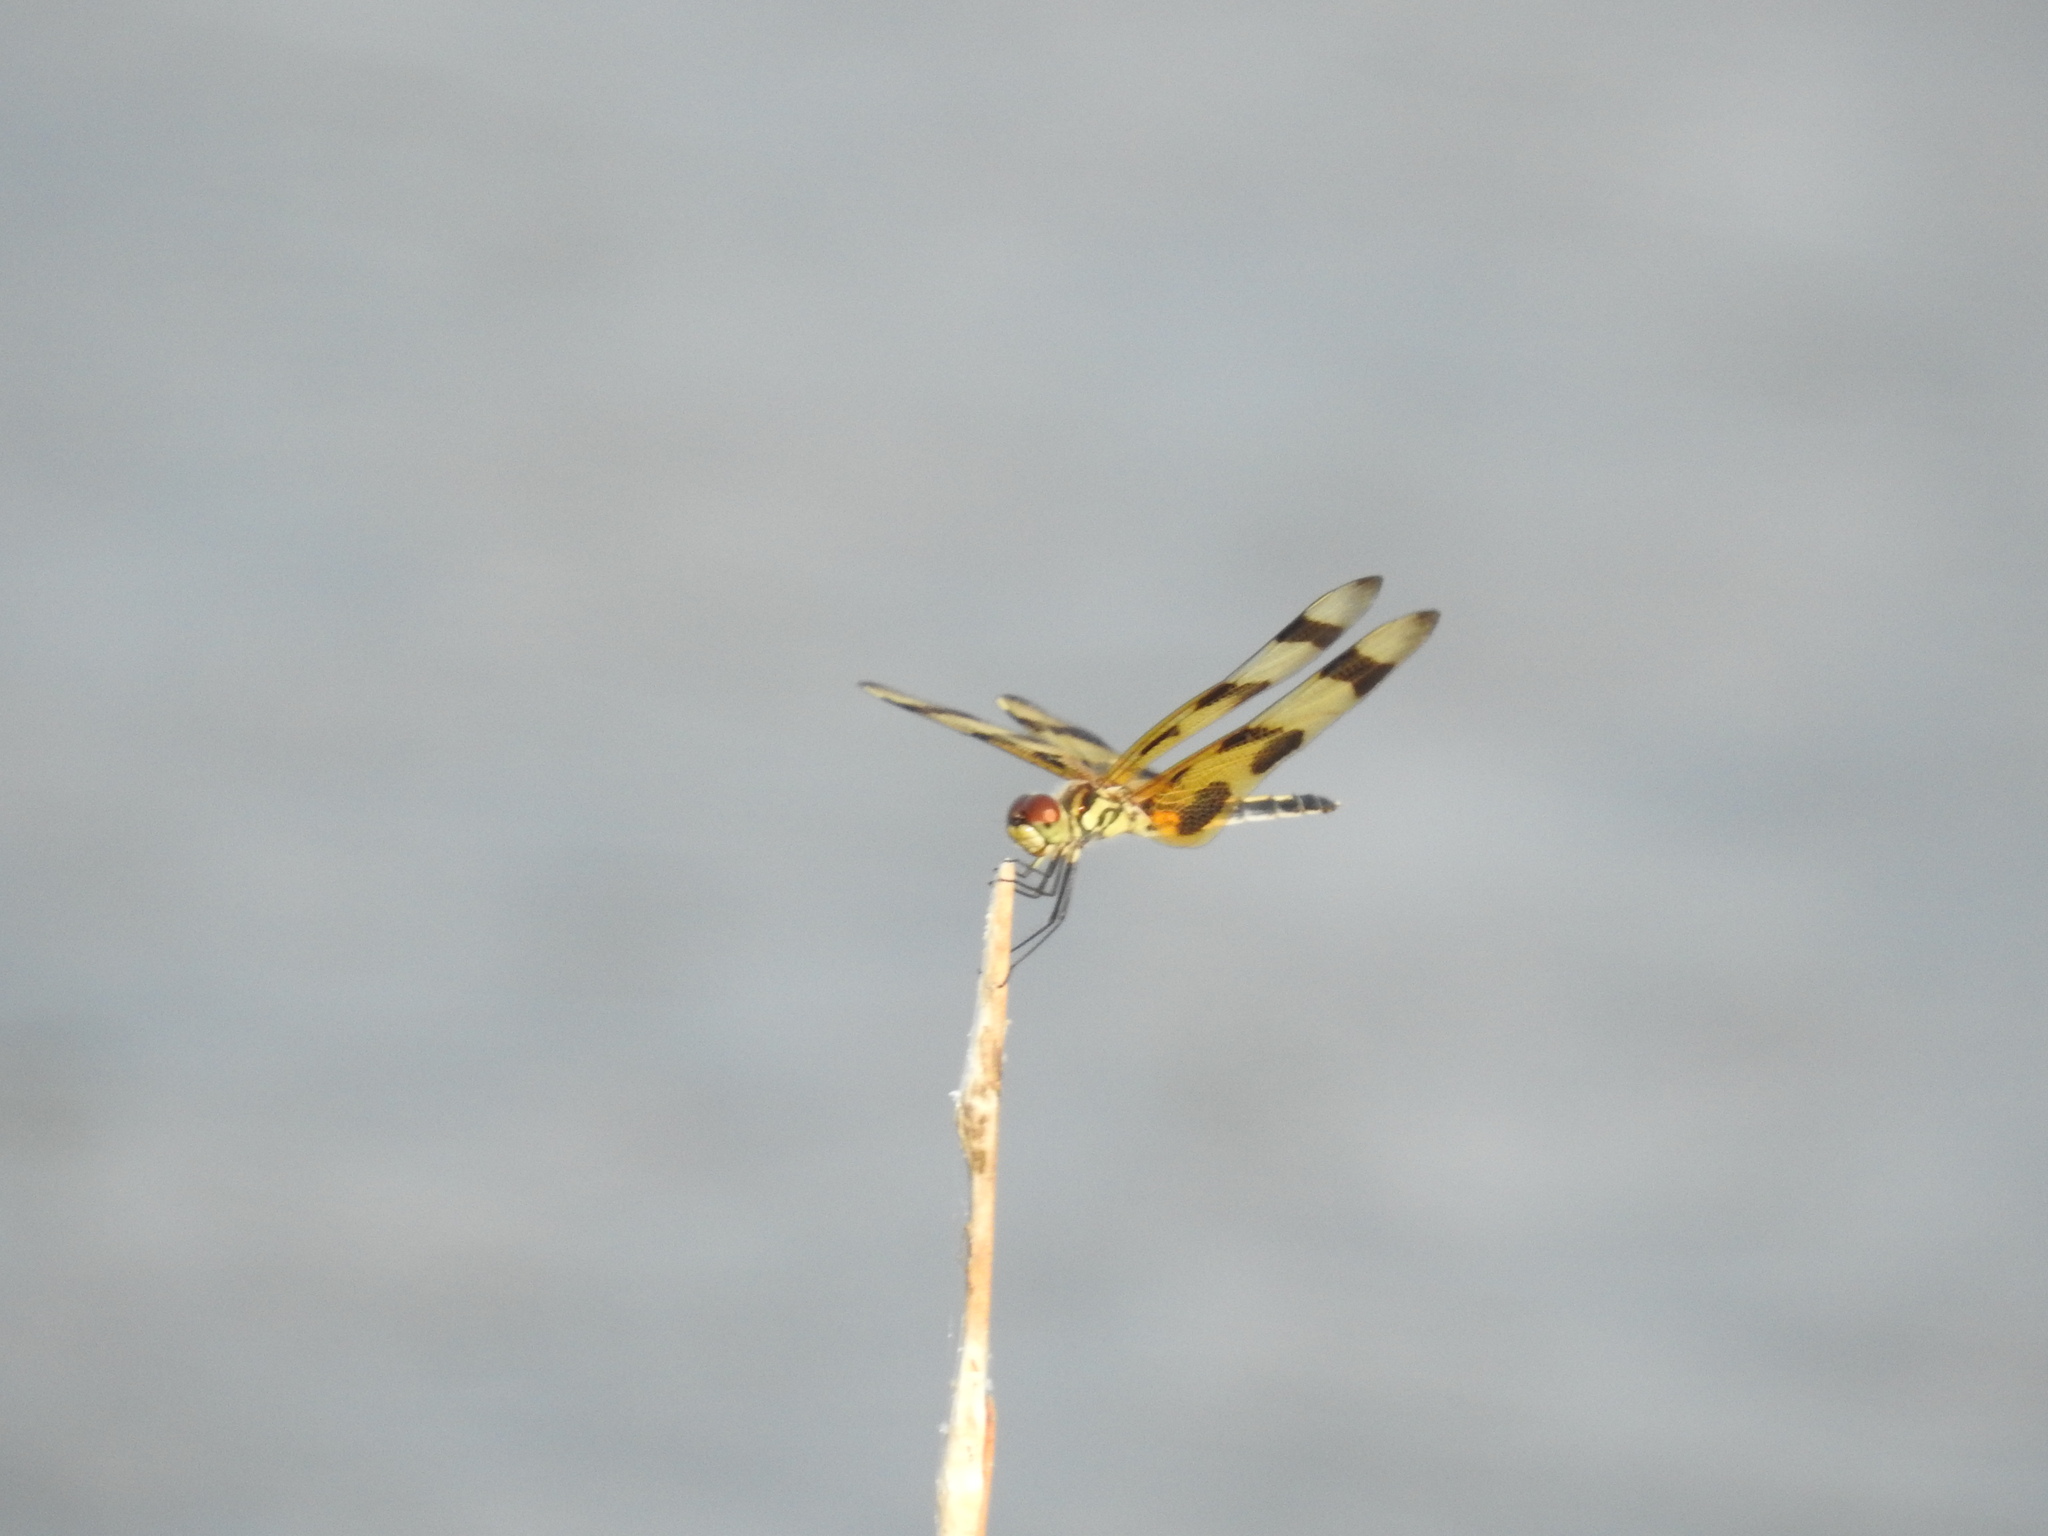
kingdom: Animalia
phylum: Arthropoda
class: Insecta
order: Odonata
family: Libellulidae
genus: Celithemis
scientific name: Celithemis eponina
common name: Halloween pennant
